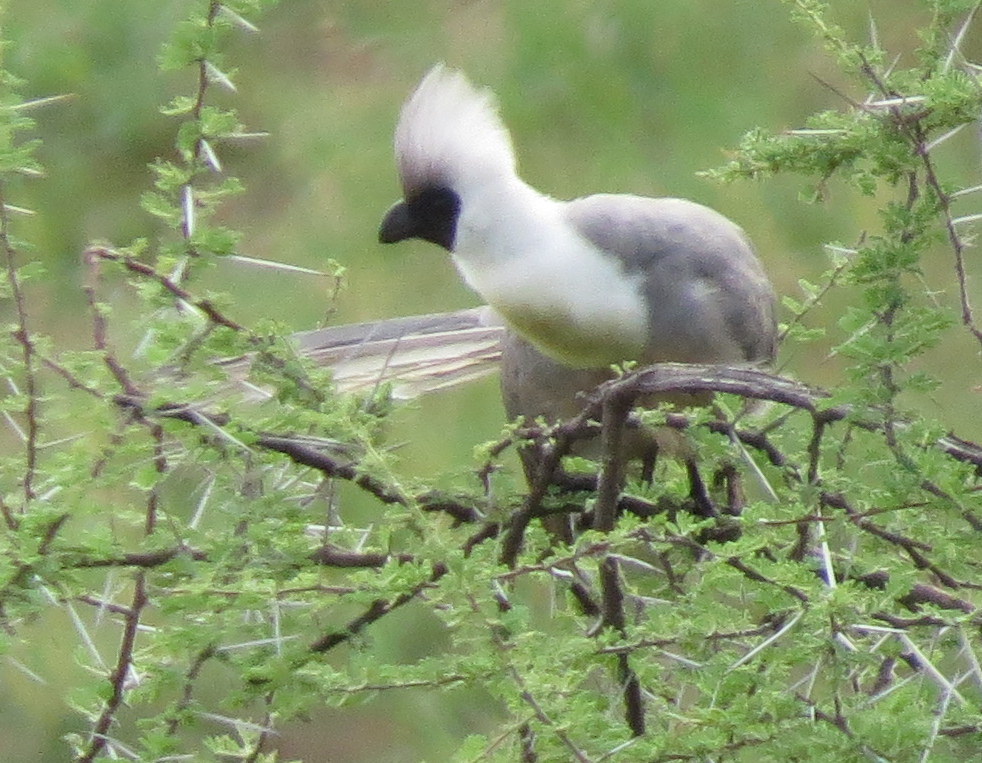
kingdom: Animalia
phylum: Chordata
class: Aves
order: Musophagiformes
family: Musophagidae
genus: Corythaixoides
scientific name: Corythaixoides personatus
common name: Bare-faced go-away-bird
